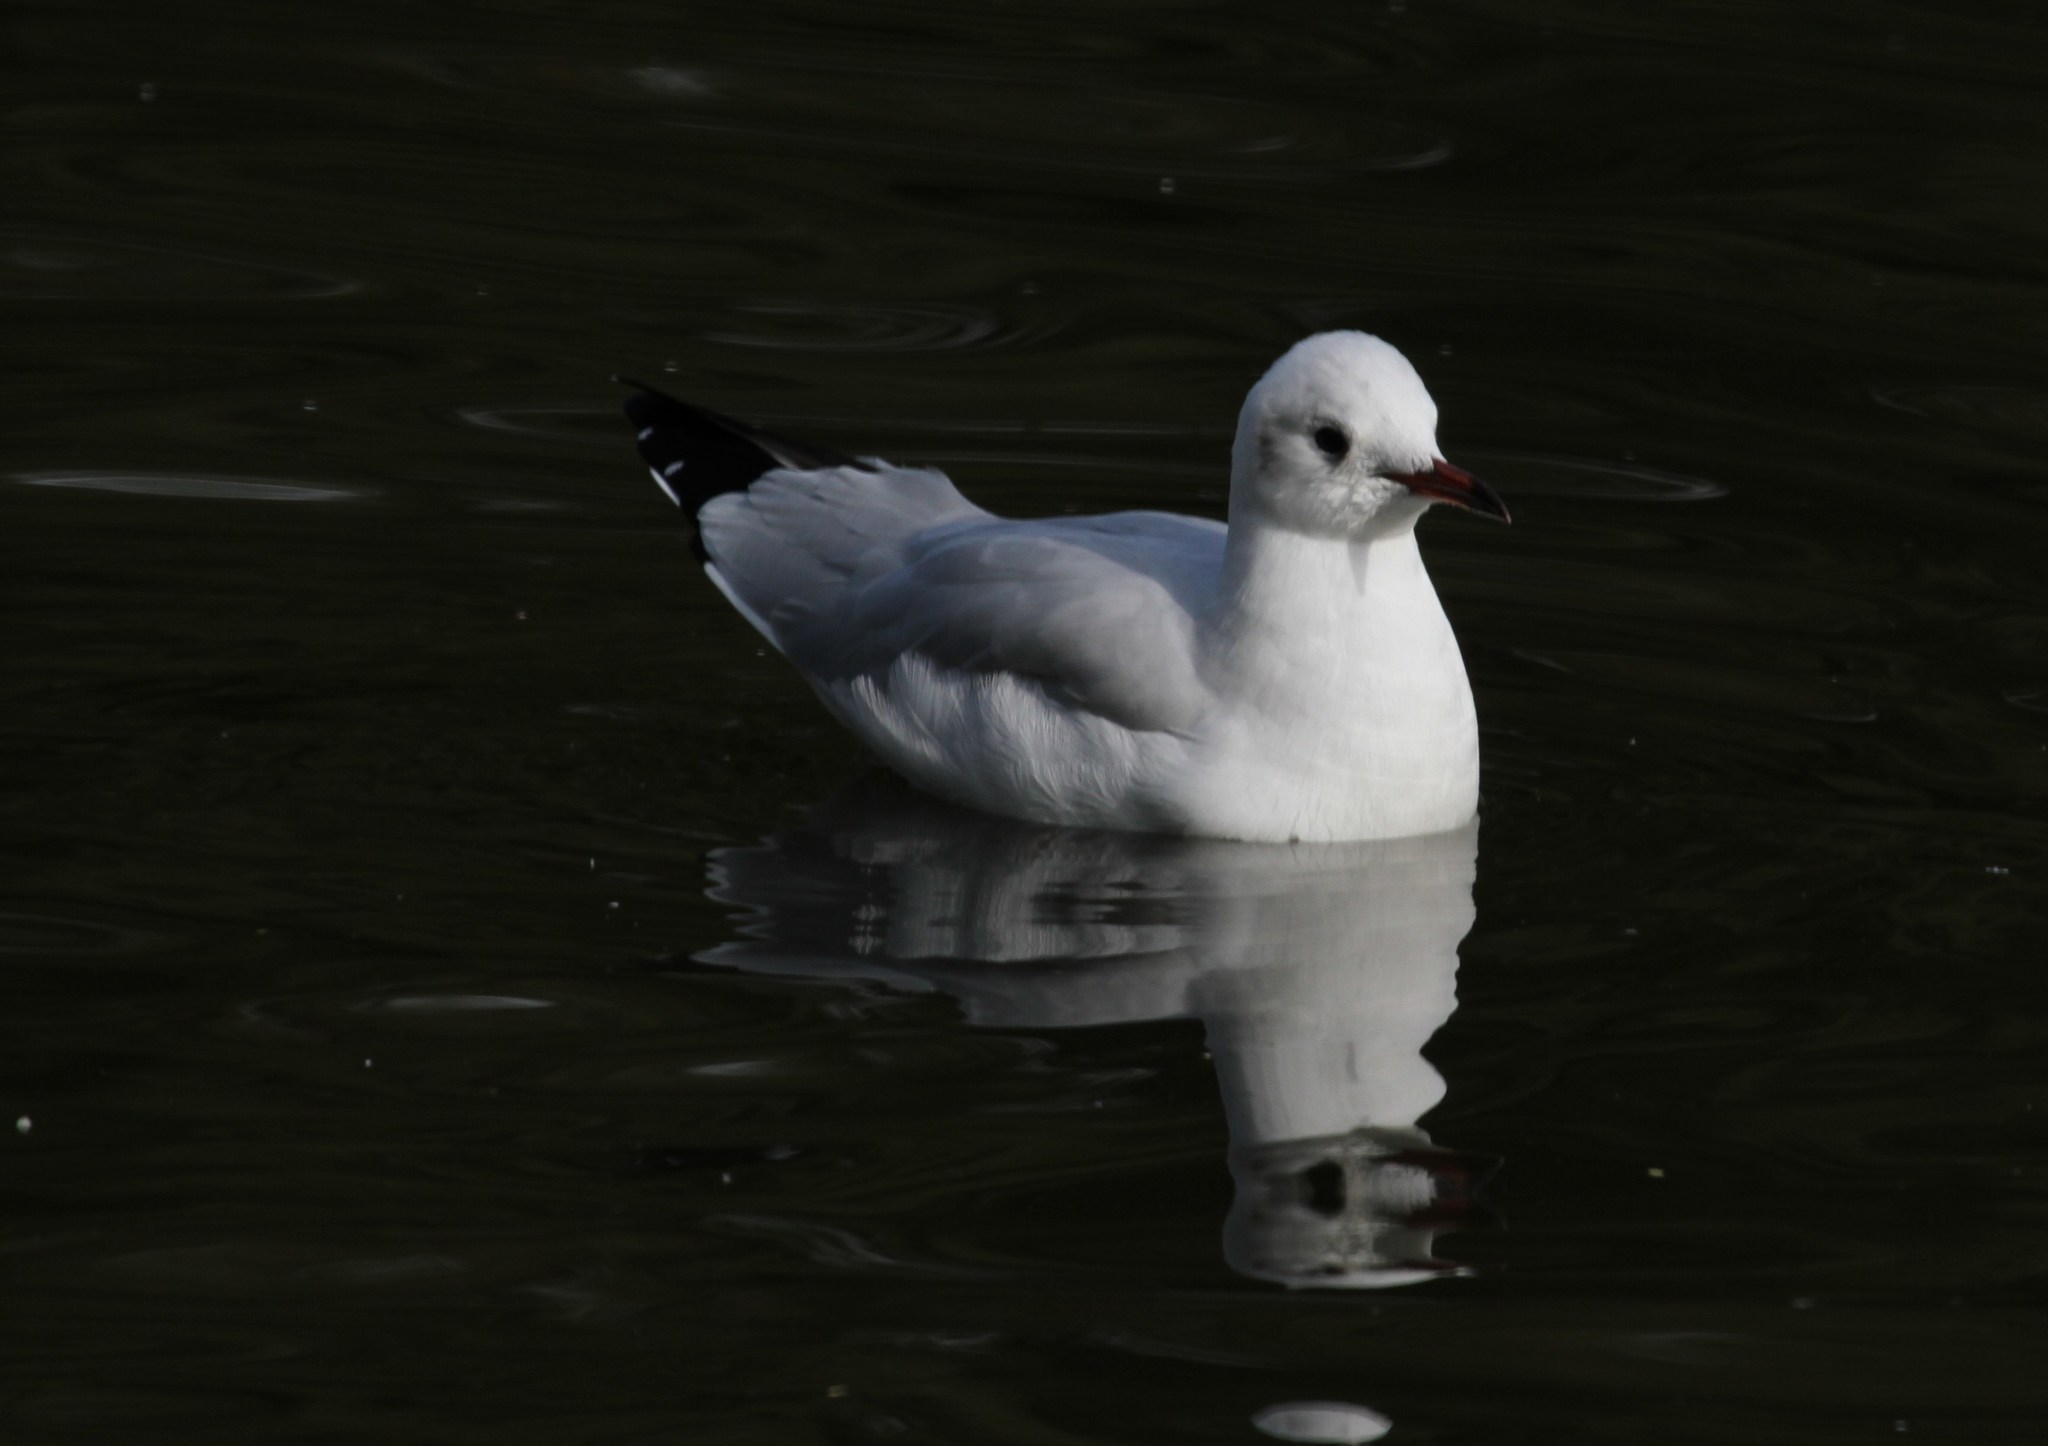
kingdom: Animalia
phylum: Chordata
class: Aves
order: Charadriiformes
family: Laridae
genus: Chroicocephalus
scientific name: Chroicocephalus ridibundus
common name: Black-headed gull
